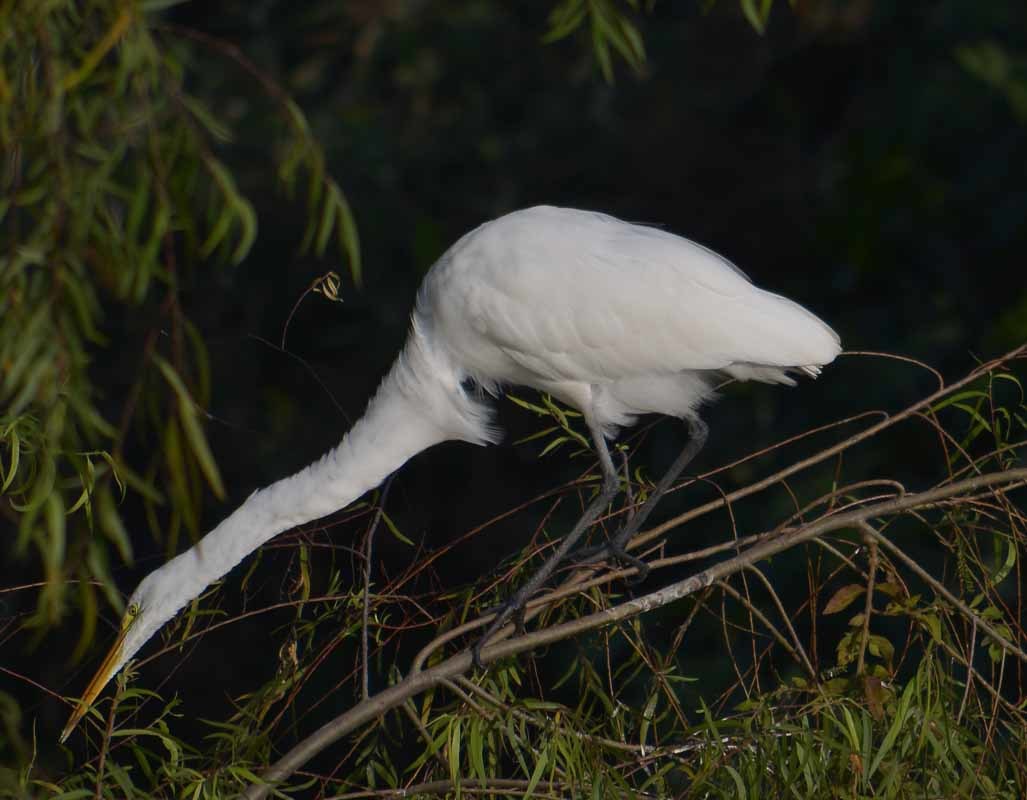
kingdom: Animalia
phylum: Chordata
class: Aves
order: Pelecaniformes
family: Ardeidae
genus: Ardea
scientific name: Ardea alba
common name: Great egret
